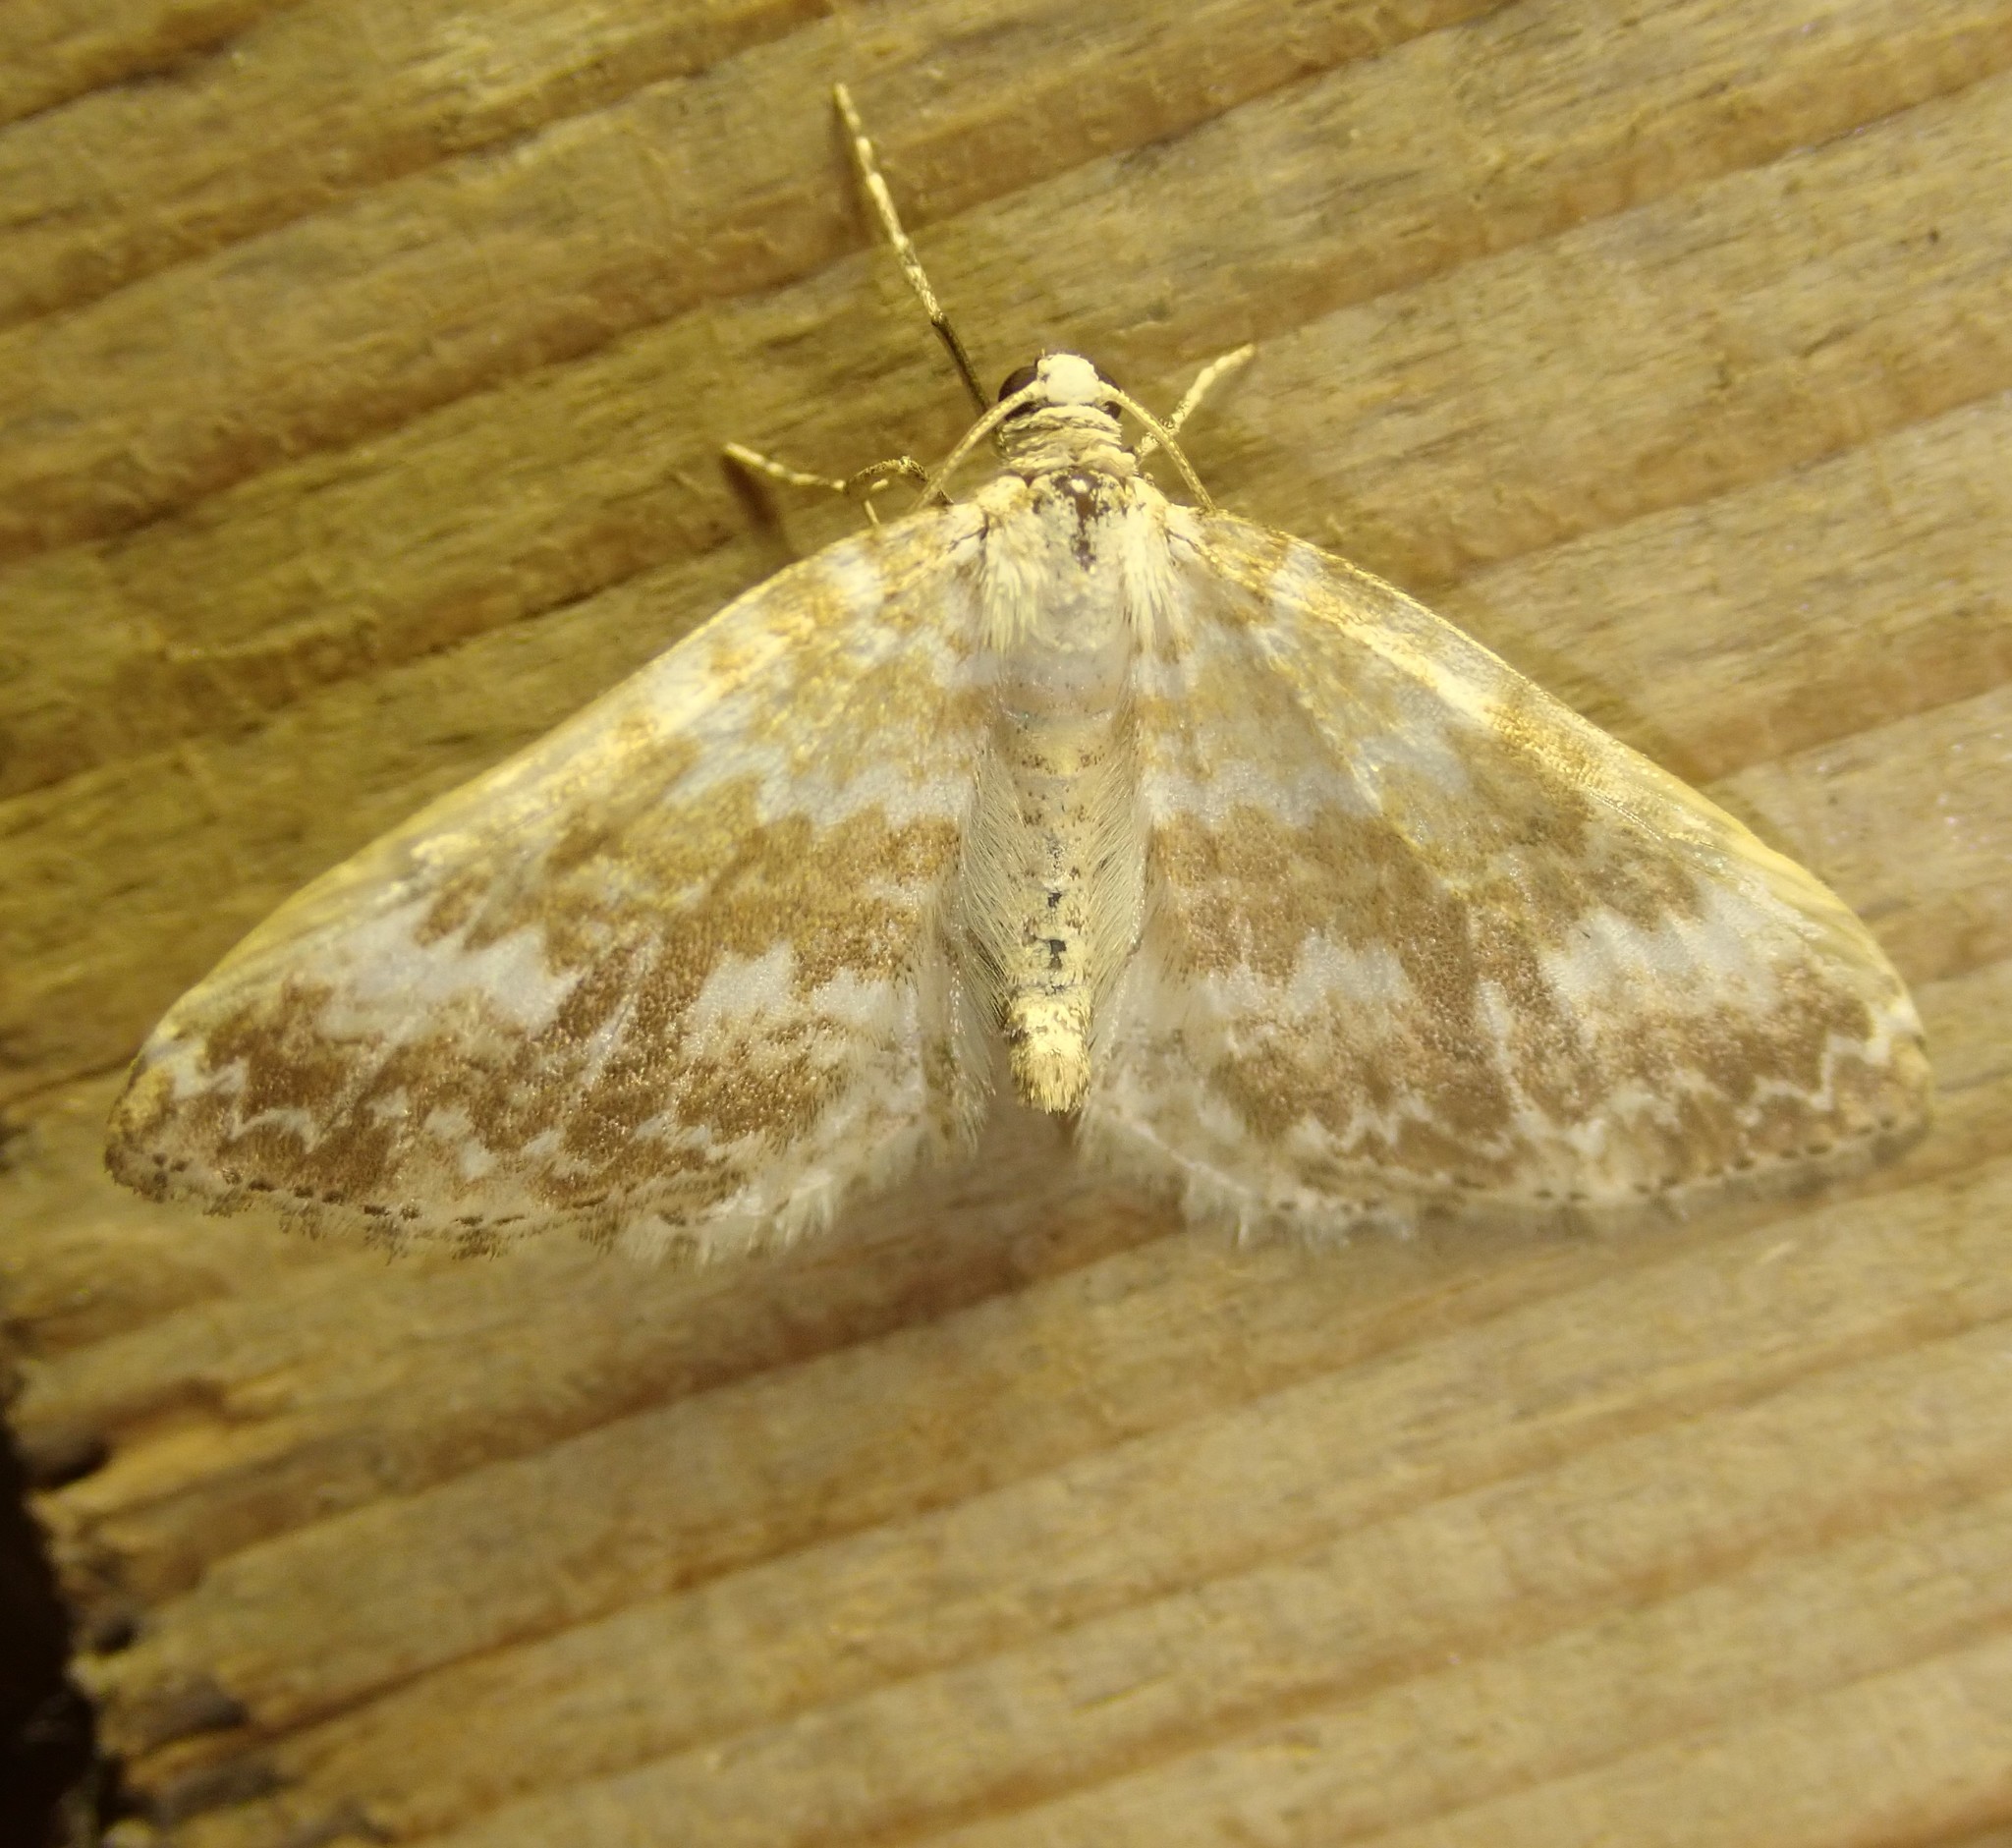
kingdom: Animalia
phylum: Arthropoda
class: Insecta
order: Lepidoptera
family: Geometridae
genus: Perizoma
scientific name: Perizoma flavofasciata
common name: Sandy carpet
